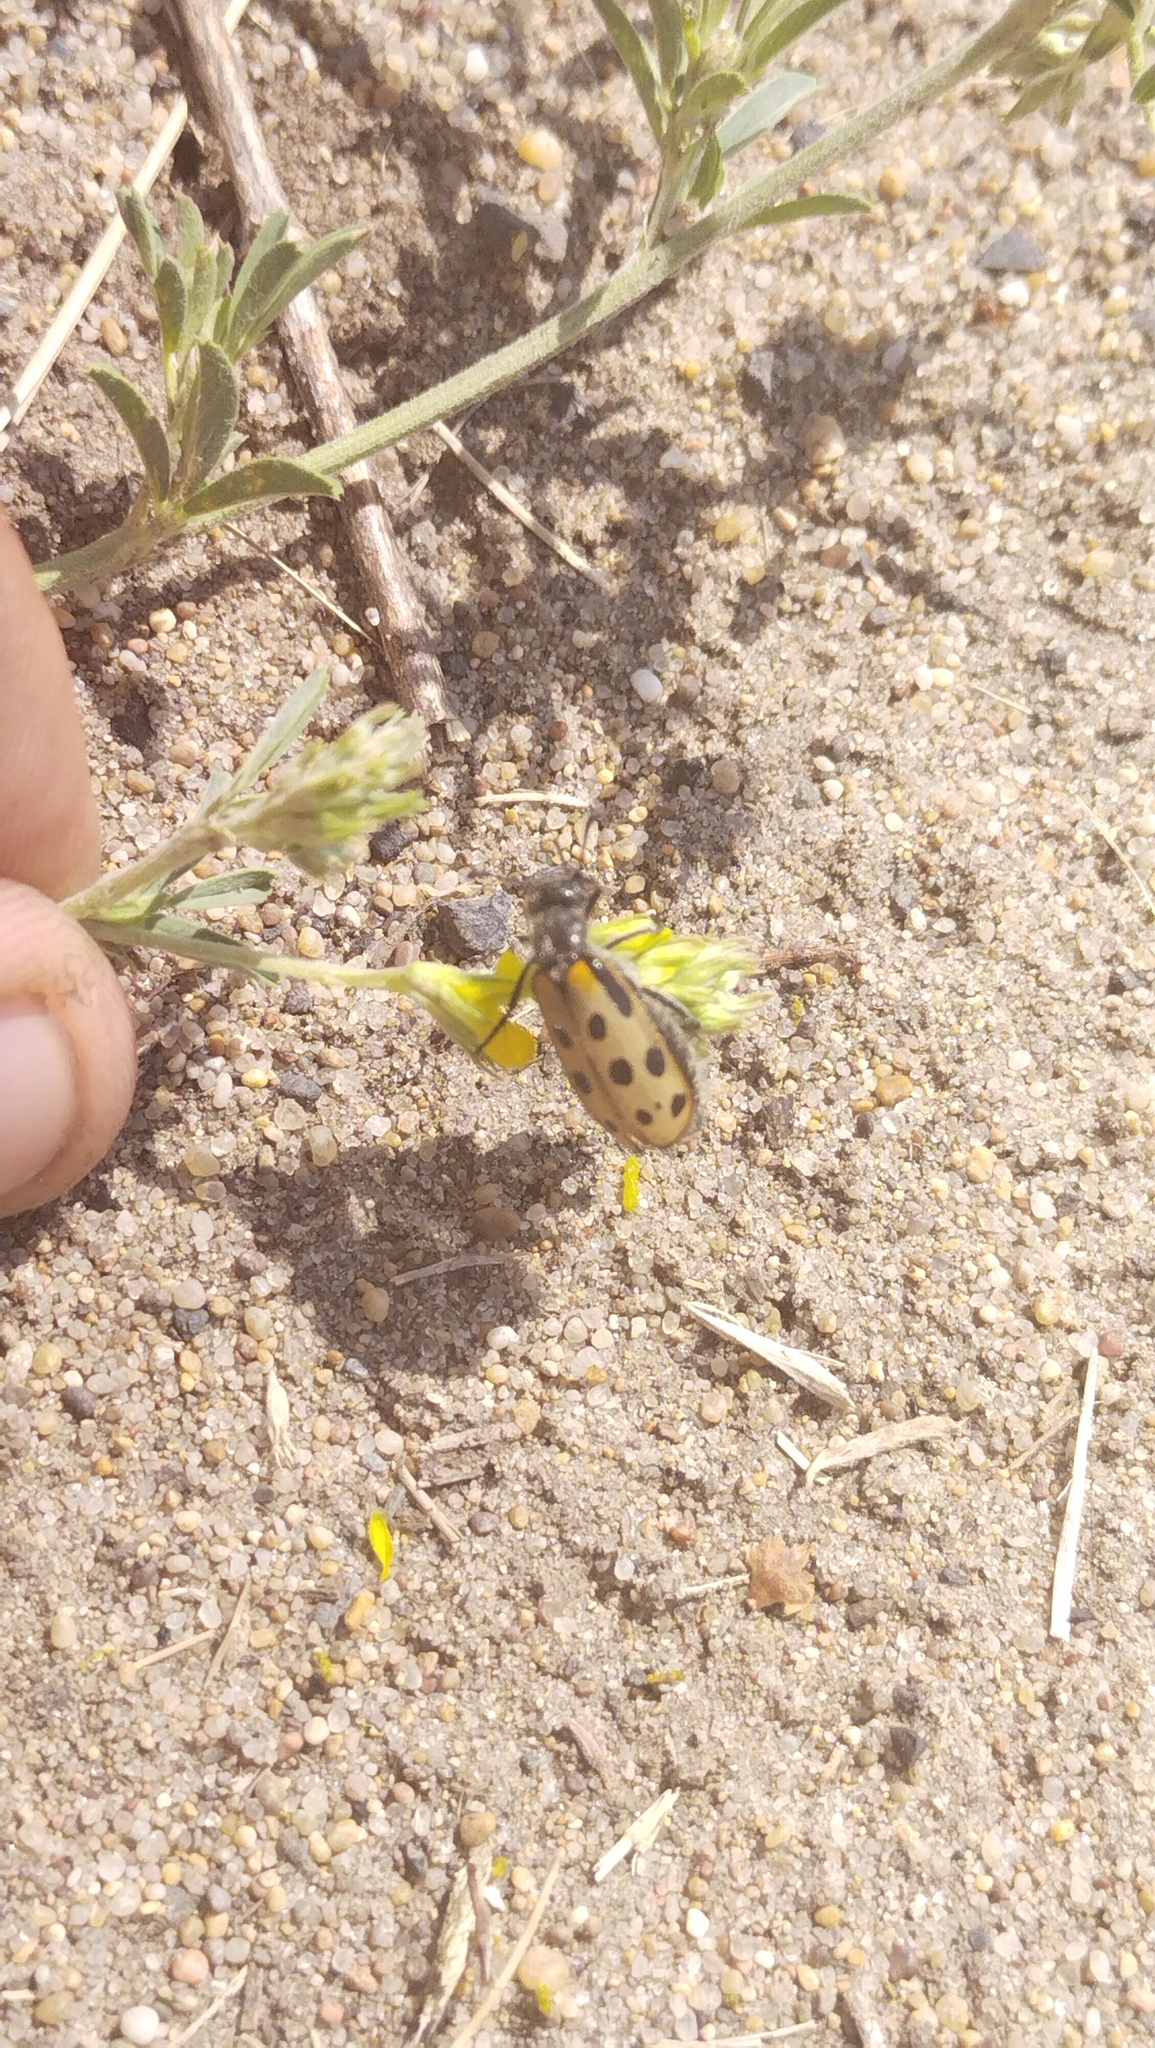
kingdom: Animalia
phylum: Arthropoda
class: Insecta
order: Coleoptera
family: Meloidae
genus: Hycleus
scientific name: Hycleus quatuordecimpunctatus
